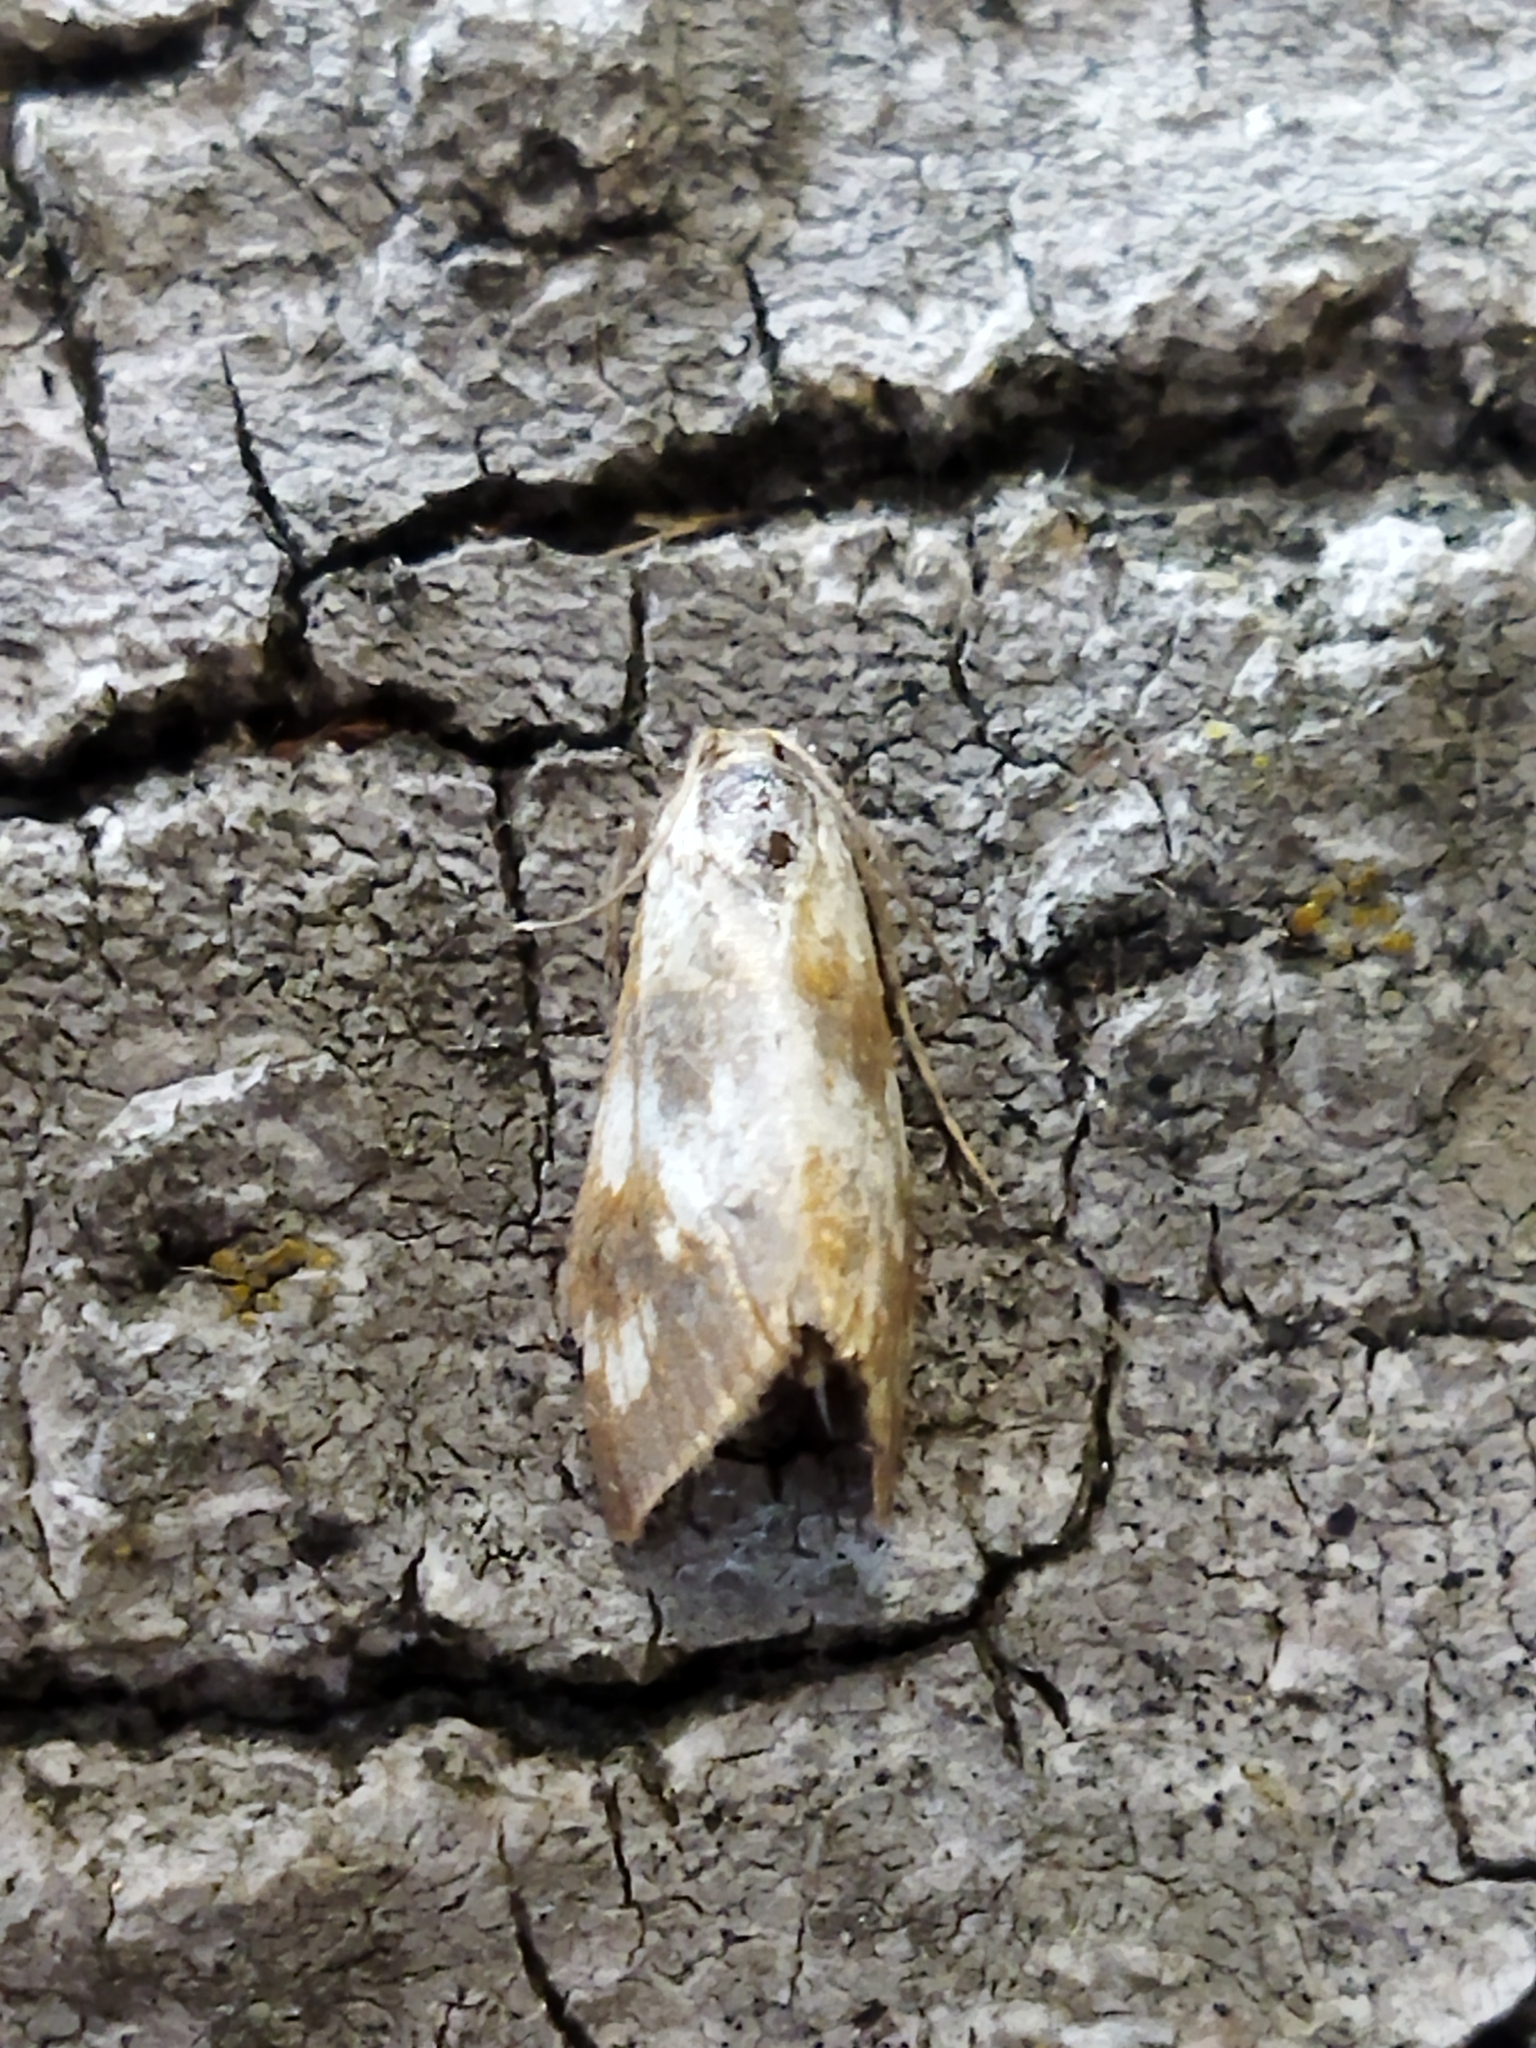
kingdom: Animalia
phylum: Arthropoda
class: Insecta
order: Lepidoptera
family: Crambidae
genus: Epascestria
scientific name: Epascestria pustulalis
